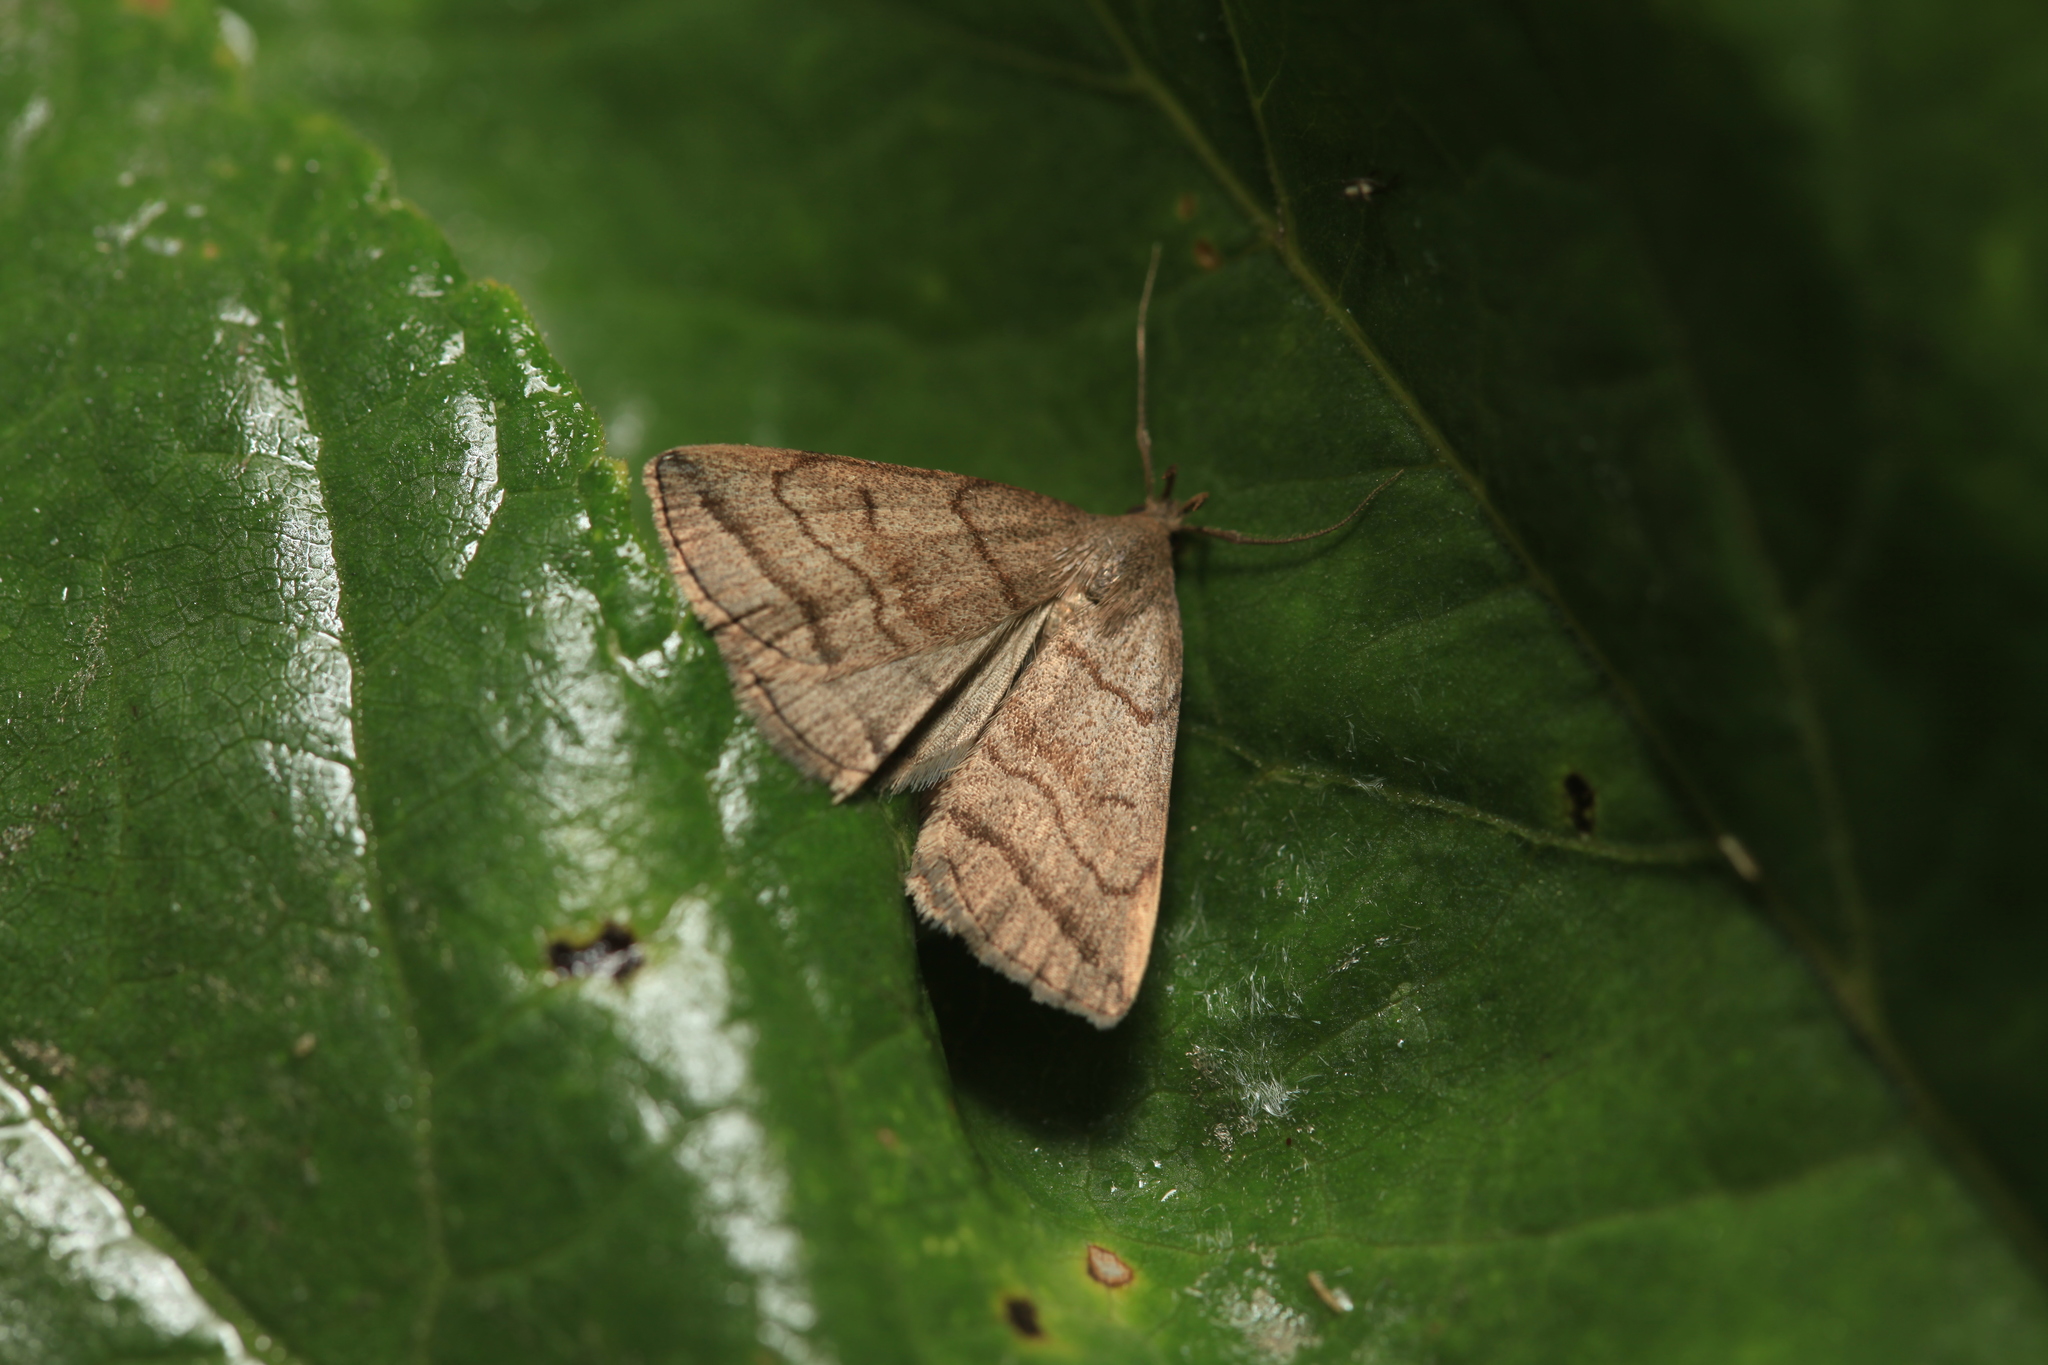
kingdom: Animalia
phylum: Arthropoda
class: Insecta
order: Lepidoptera
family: Erebidae
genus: Herminia
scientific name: Herminia tenuialis
